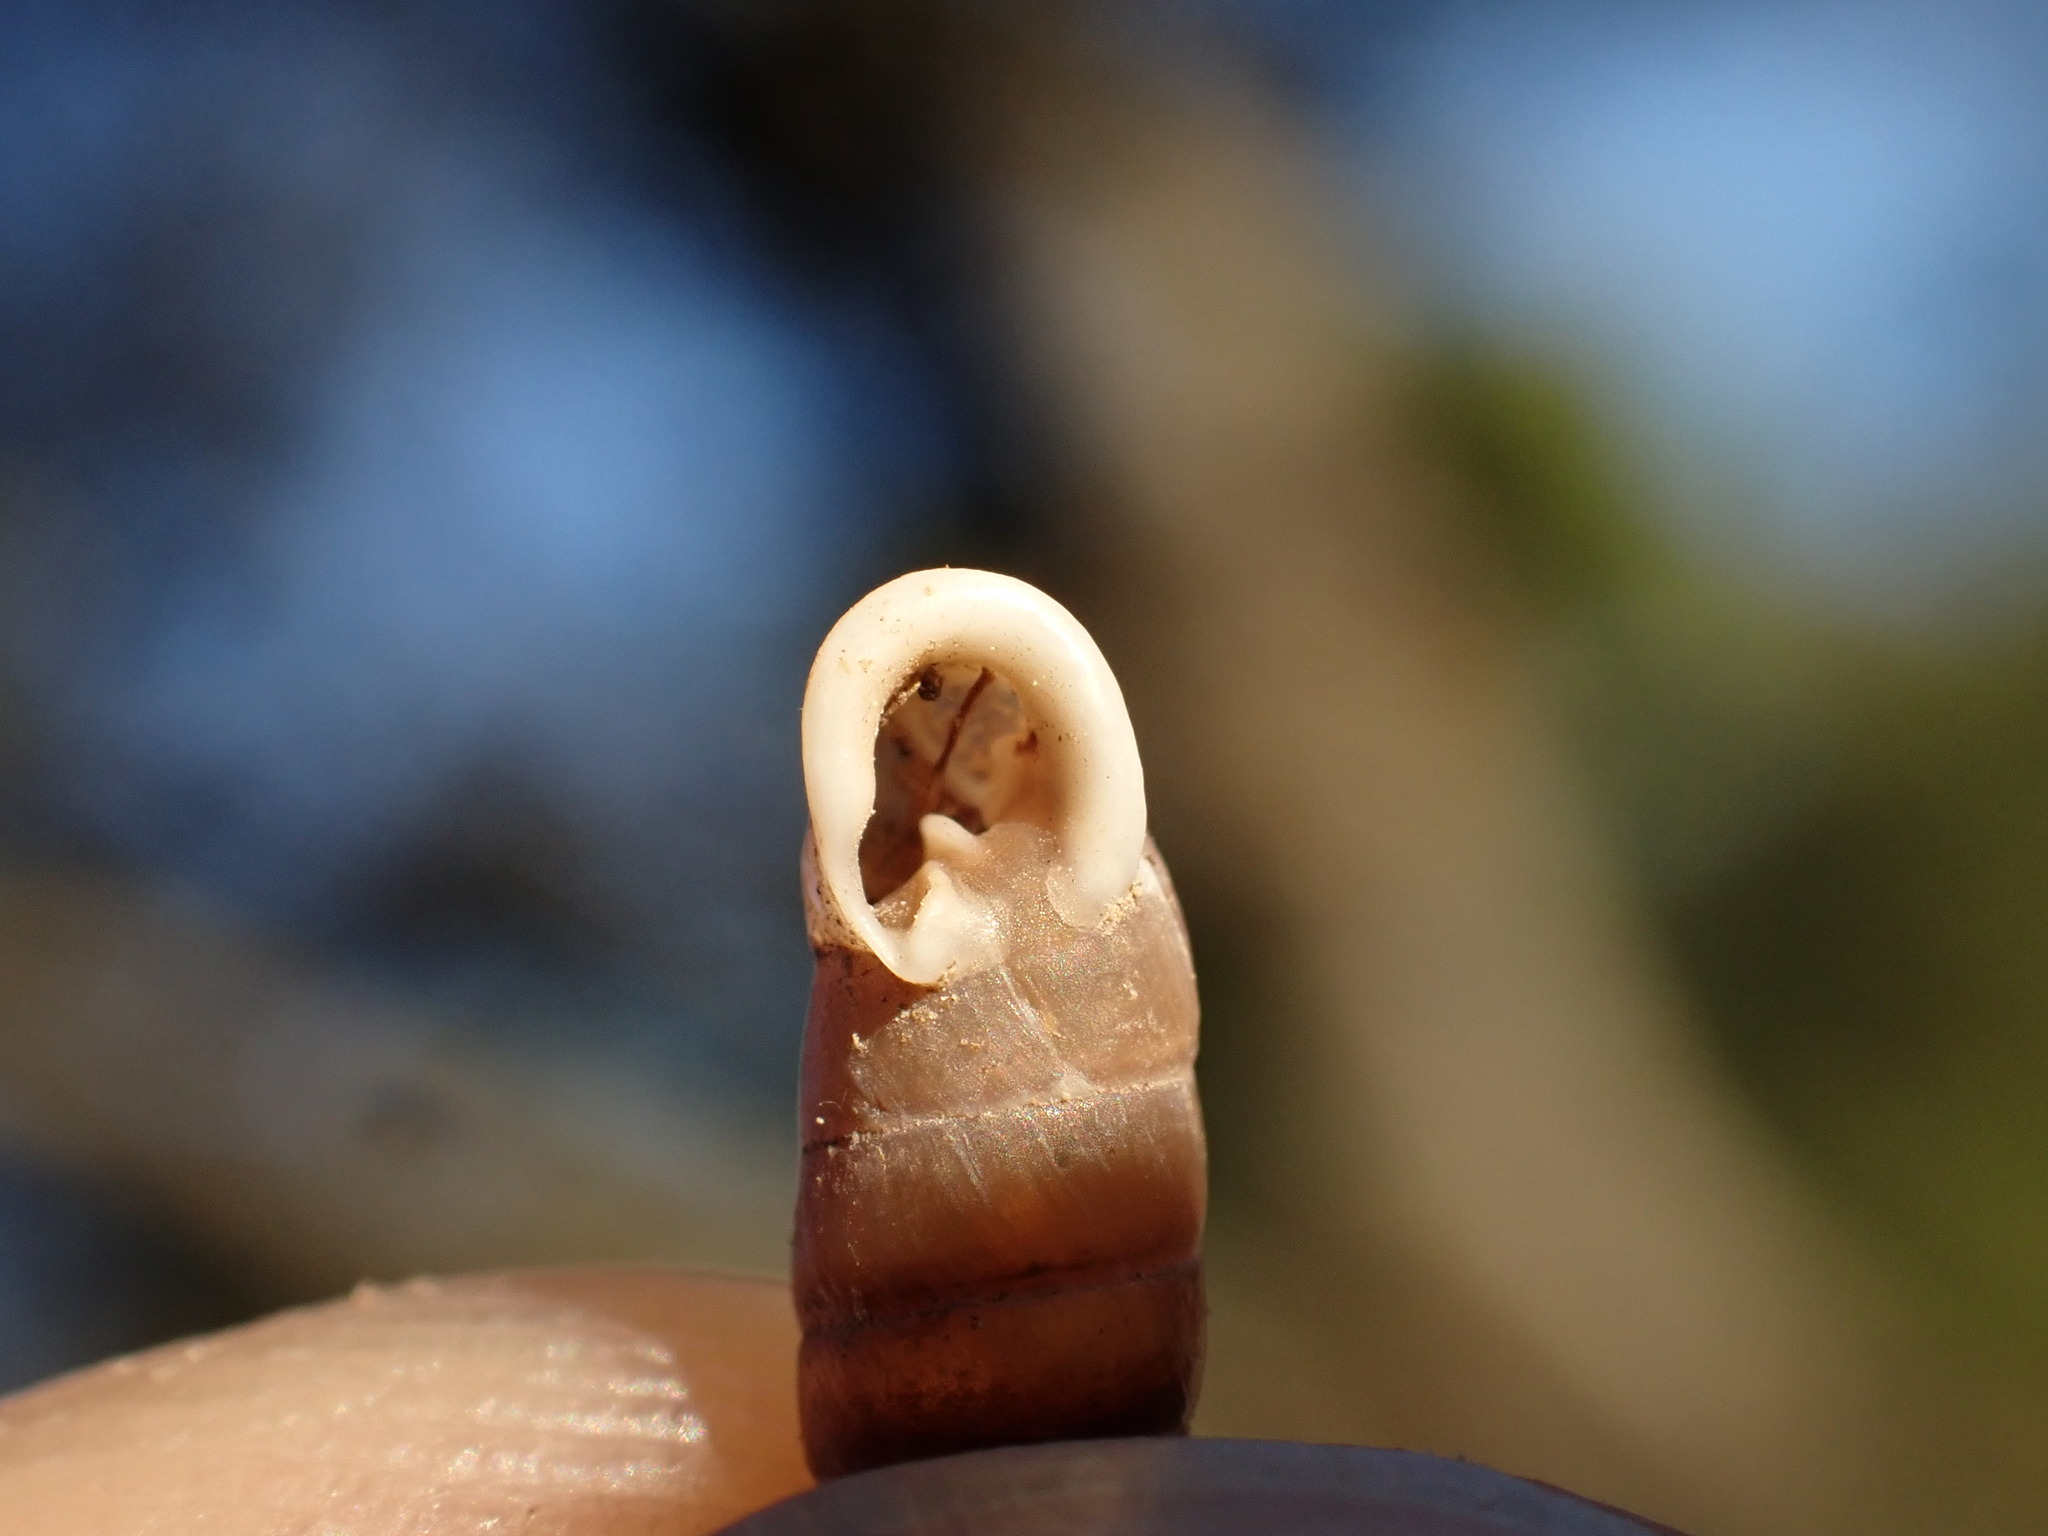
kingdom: Animalia
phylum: Mollusca
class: Gastropoda
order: Stylommatophora
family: Chondrinidae
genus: Granaria
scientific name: Granaria variabilis
